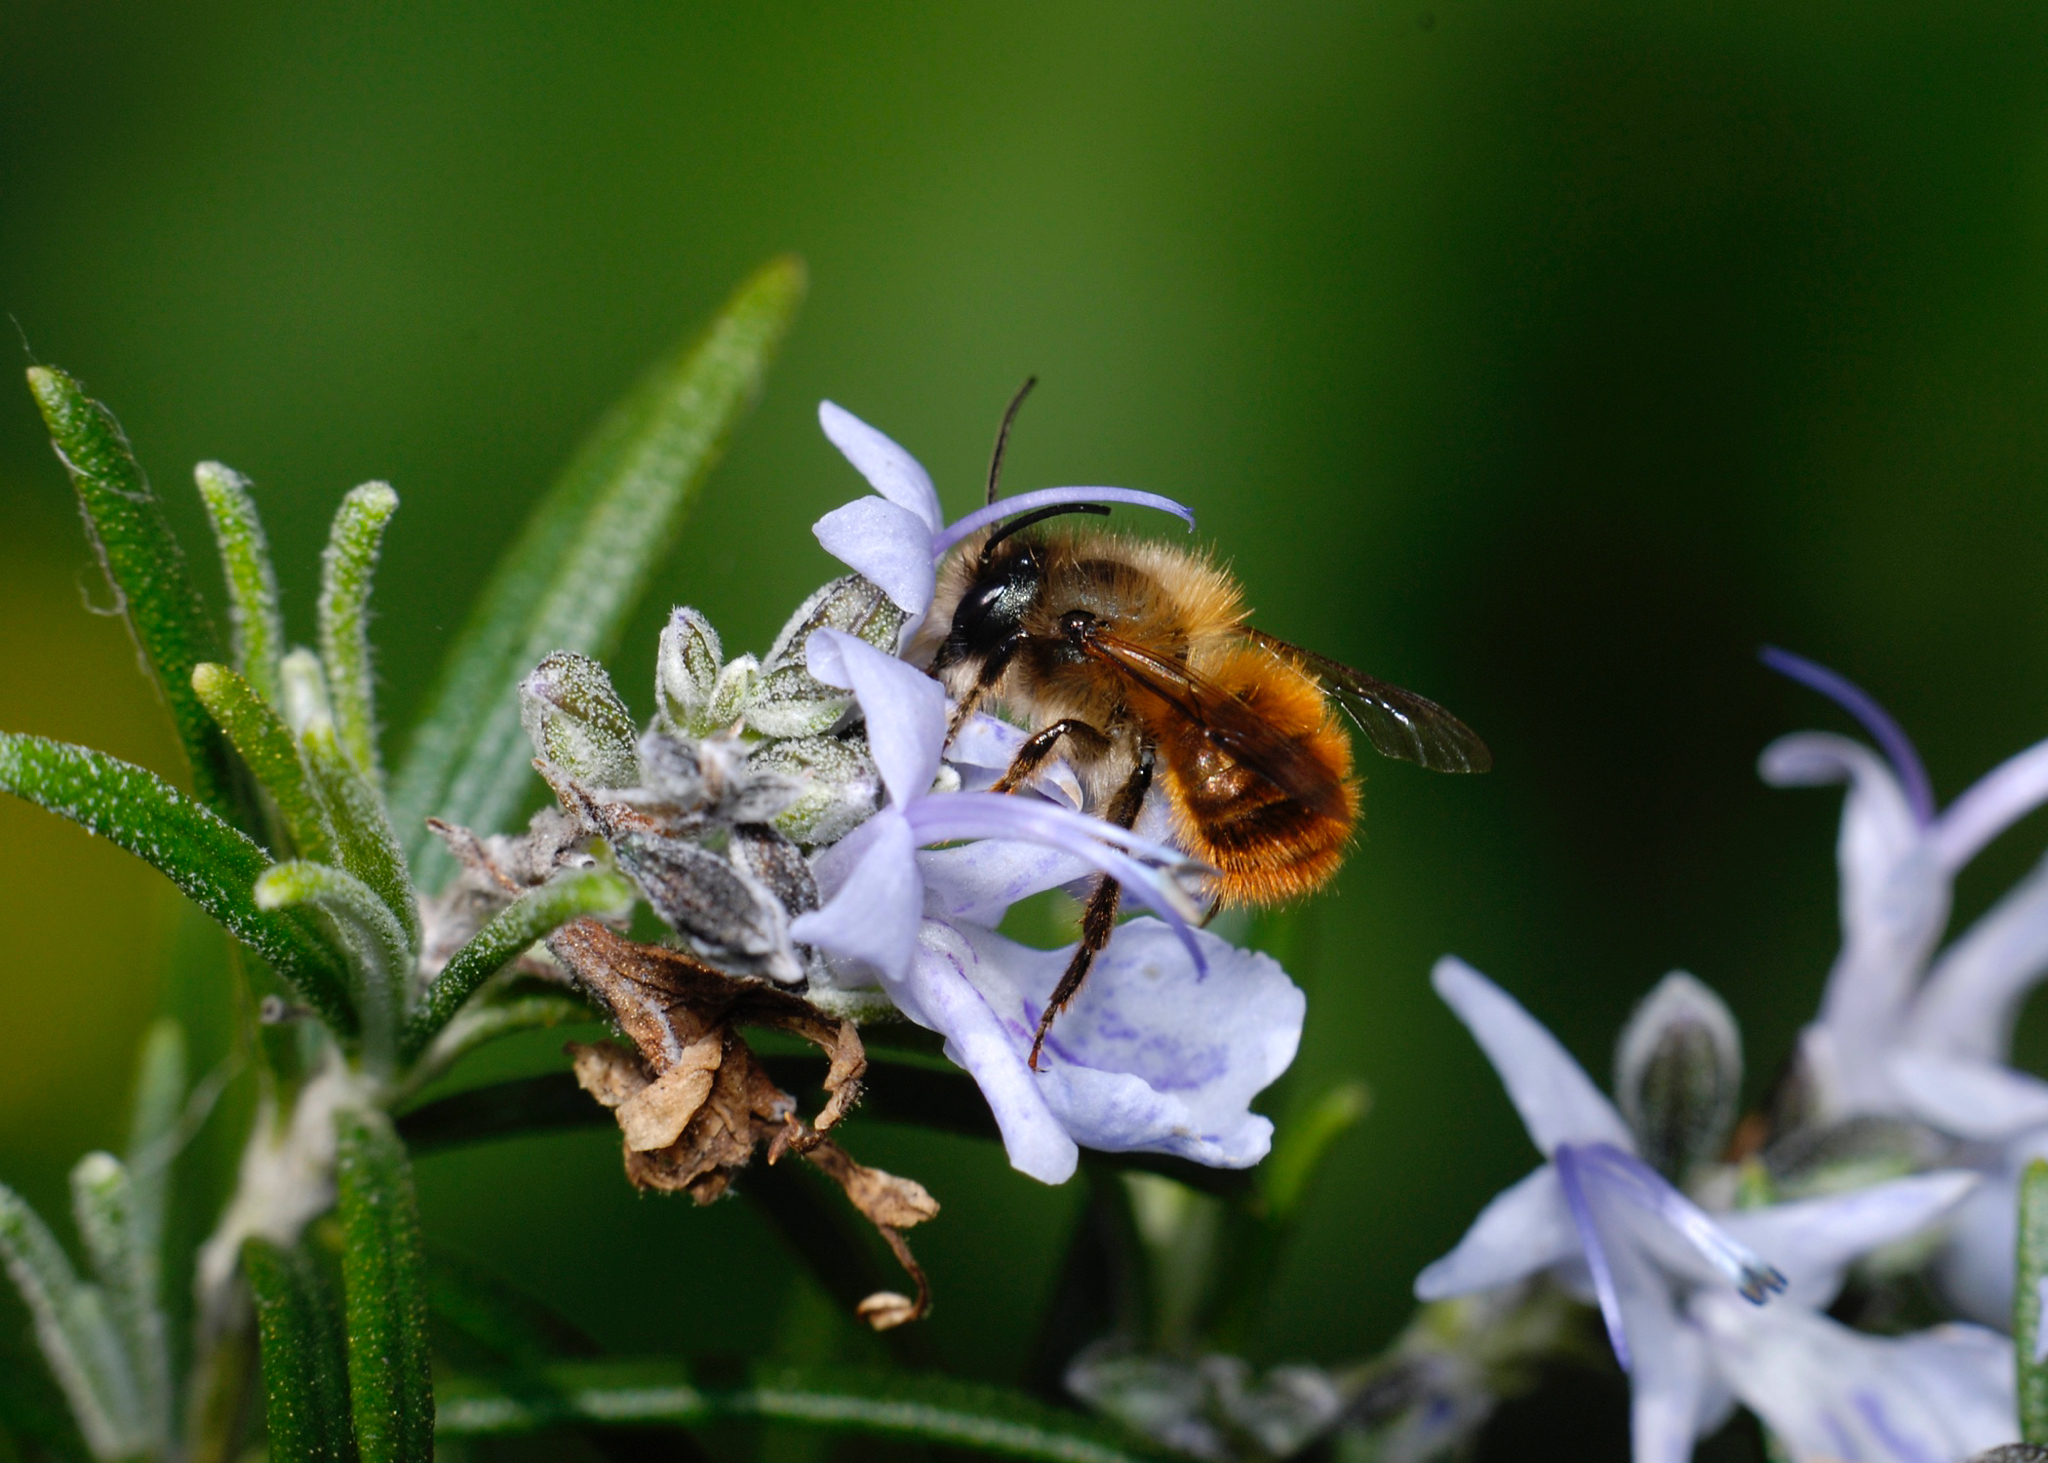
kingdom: Animalia
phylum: Arthropoda
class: Insecta
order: Hymenoptera
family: Megachilidae
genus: Osmia
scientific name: Osmia bicornis
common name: Red mason bee
